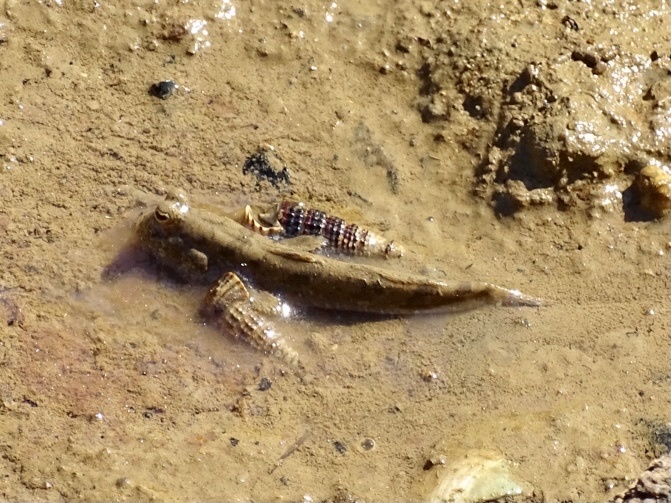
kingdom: Animalia
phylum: Chordata
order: Perciformes
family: Gobiidae
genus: Periophthalmus
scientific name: Periophthalmus modestus
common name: Black goby
